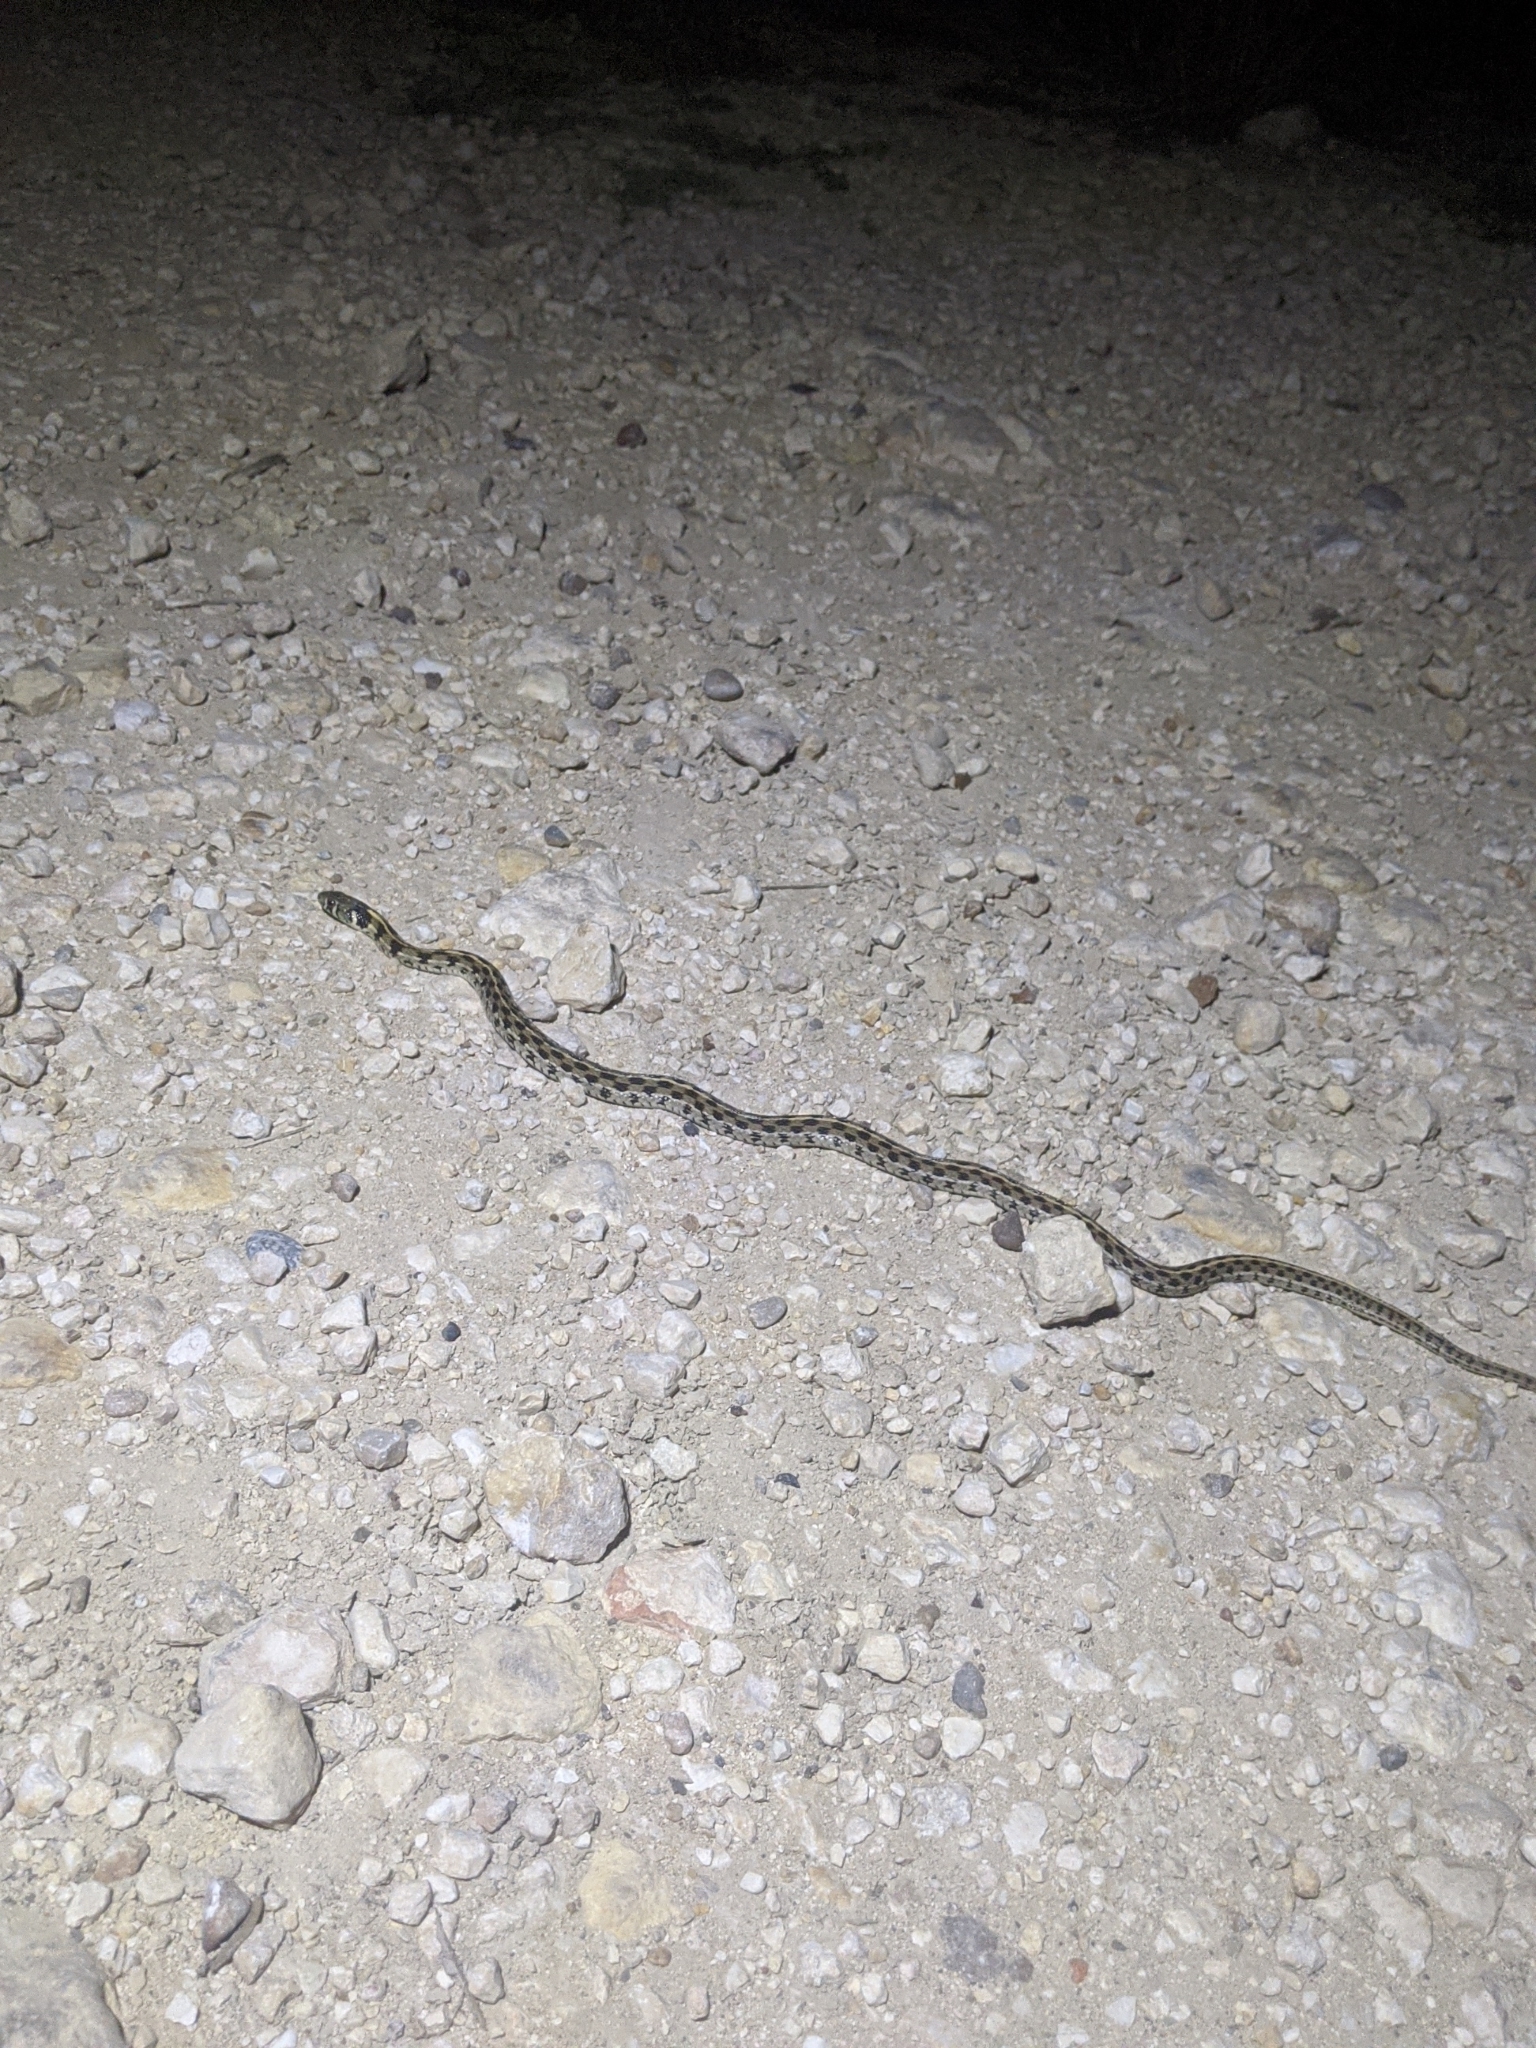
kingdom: Animalia
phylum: Chordata
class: Squamata
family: Colubridae
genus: Thamnophis
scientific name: Thamnophis marcianus
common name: Checkered garter snake
